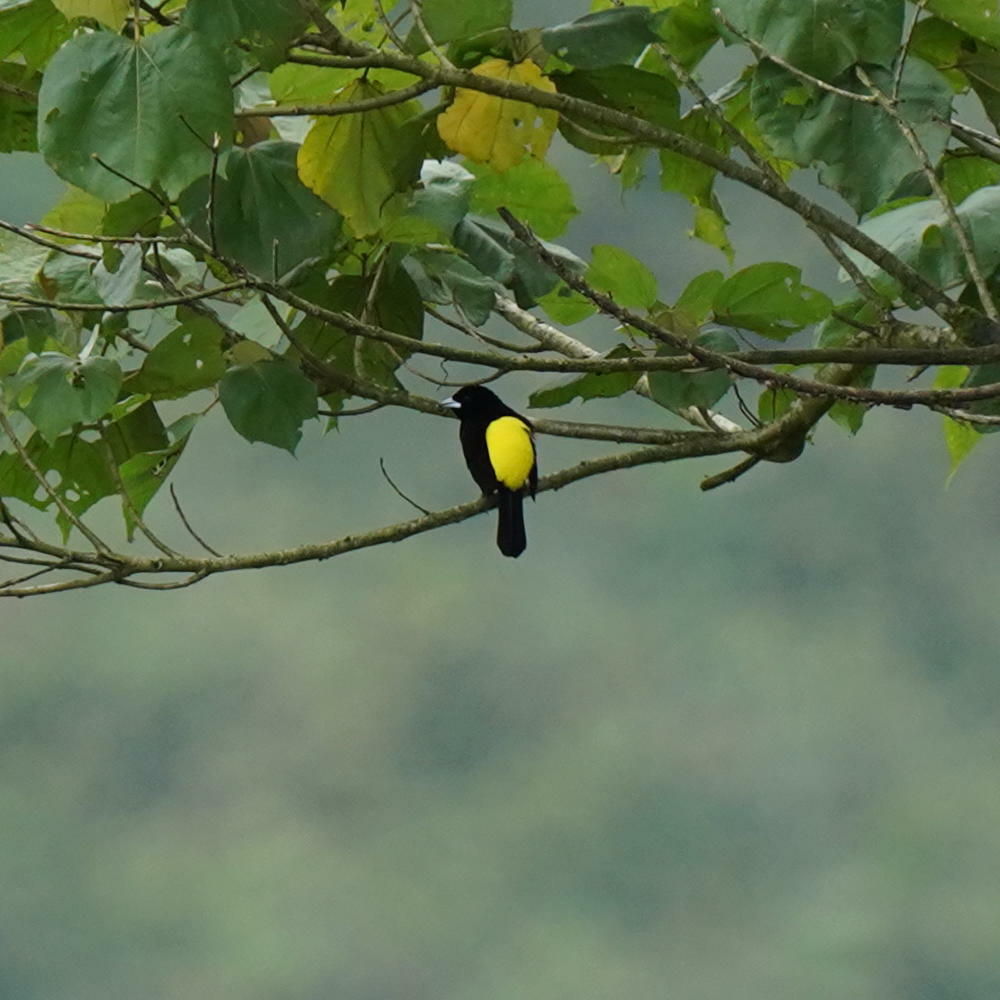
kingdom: Animalia
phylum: Chordata
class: Aves
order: Passeriformes
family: Thraupidae
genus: Ramphocelus
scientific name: Ramphocelus icteronotus
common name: Lemon-rumped tanager
